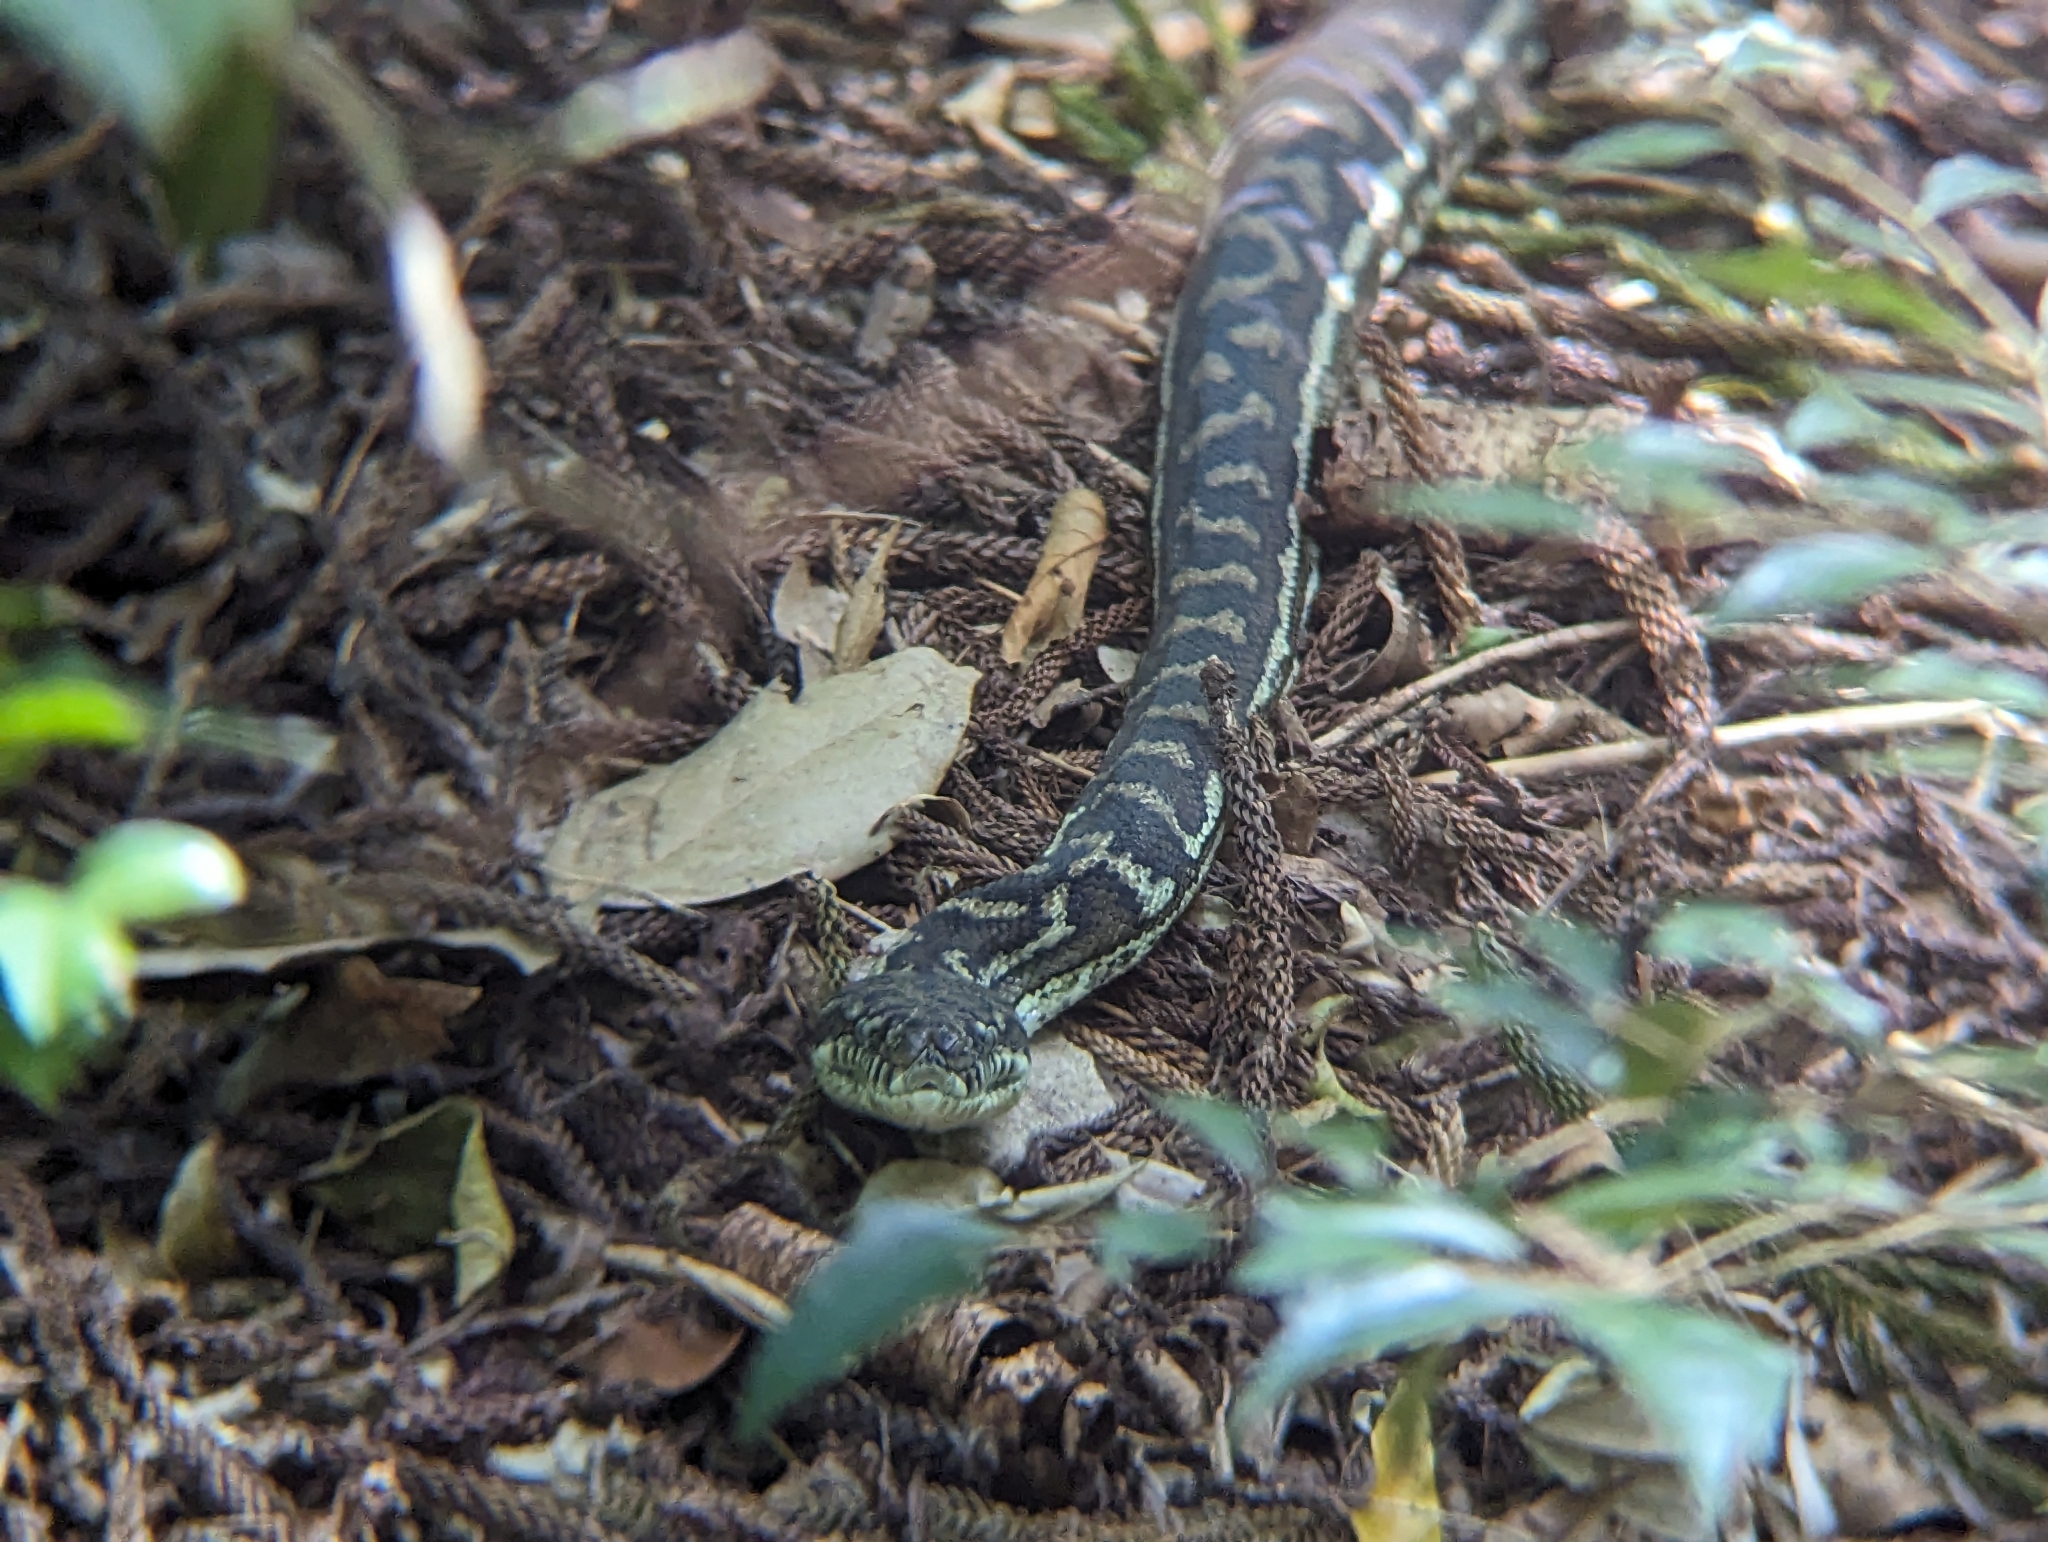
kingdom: Animalia
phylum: Chordata
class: Squamata
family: Pythonidae
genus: Morelia
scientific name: Morelia spilota
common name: Carpet python
